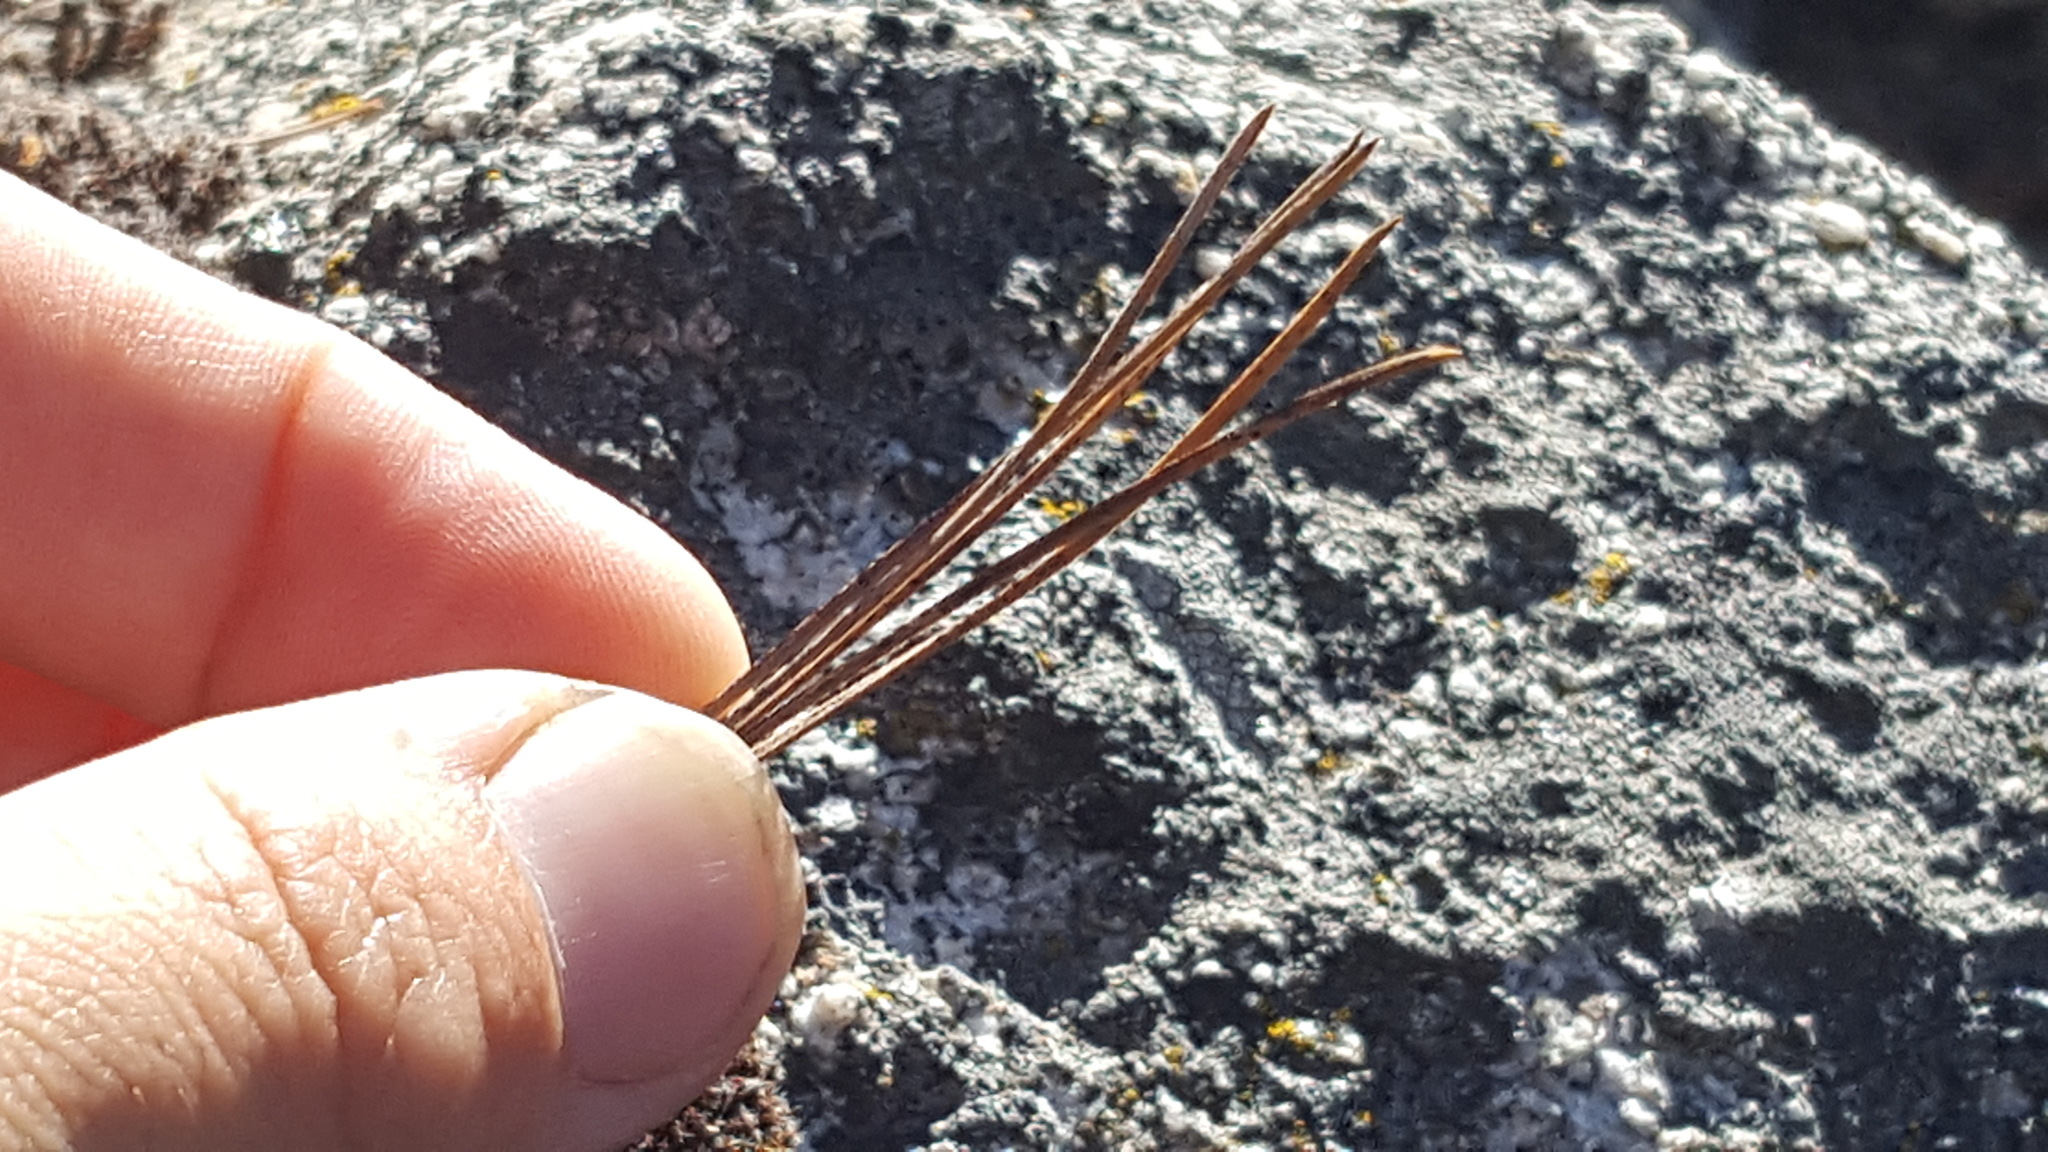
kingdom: Plantae
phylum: Tracheophyta
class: Pinopsida
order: Pinales
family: Pinaceae
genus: Pinus
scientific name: Pinus lambertiana
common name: Sugar pine
